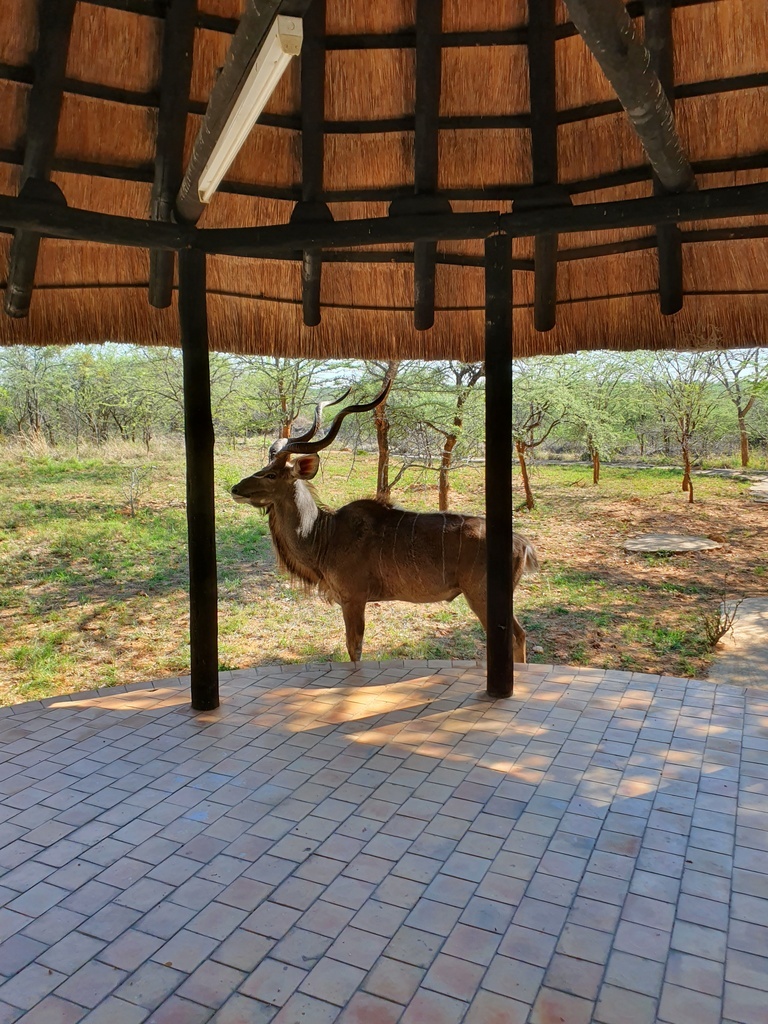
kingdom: Animalia
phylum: Chordata
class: Mammalia
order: Artiodactyla
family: Bovidae
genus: Tragelaphus
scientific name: Tragelaphus strepsiceros
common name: Greater kudu
